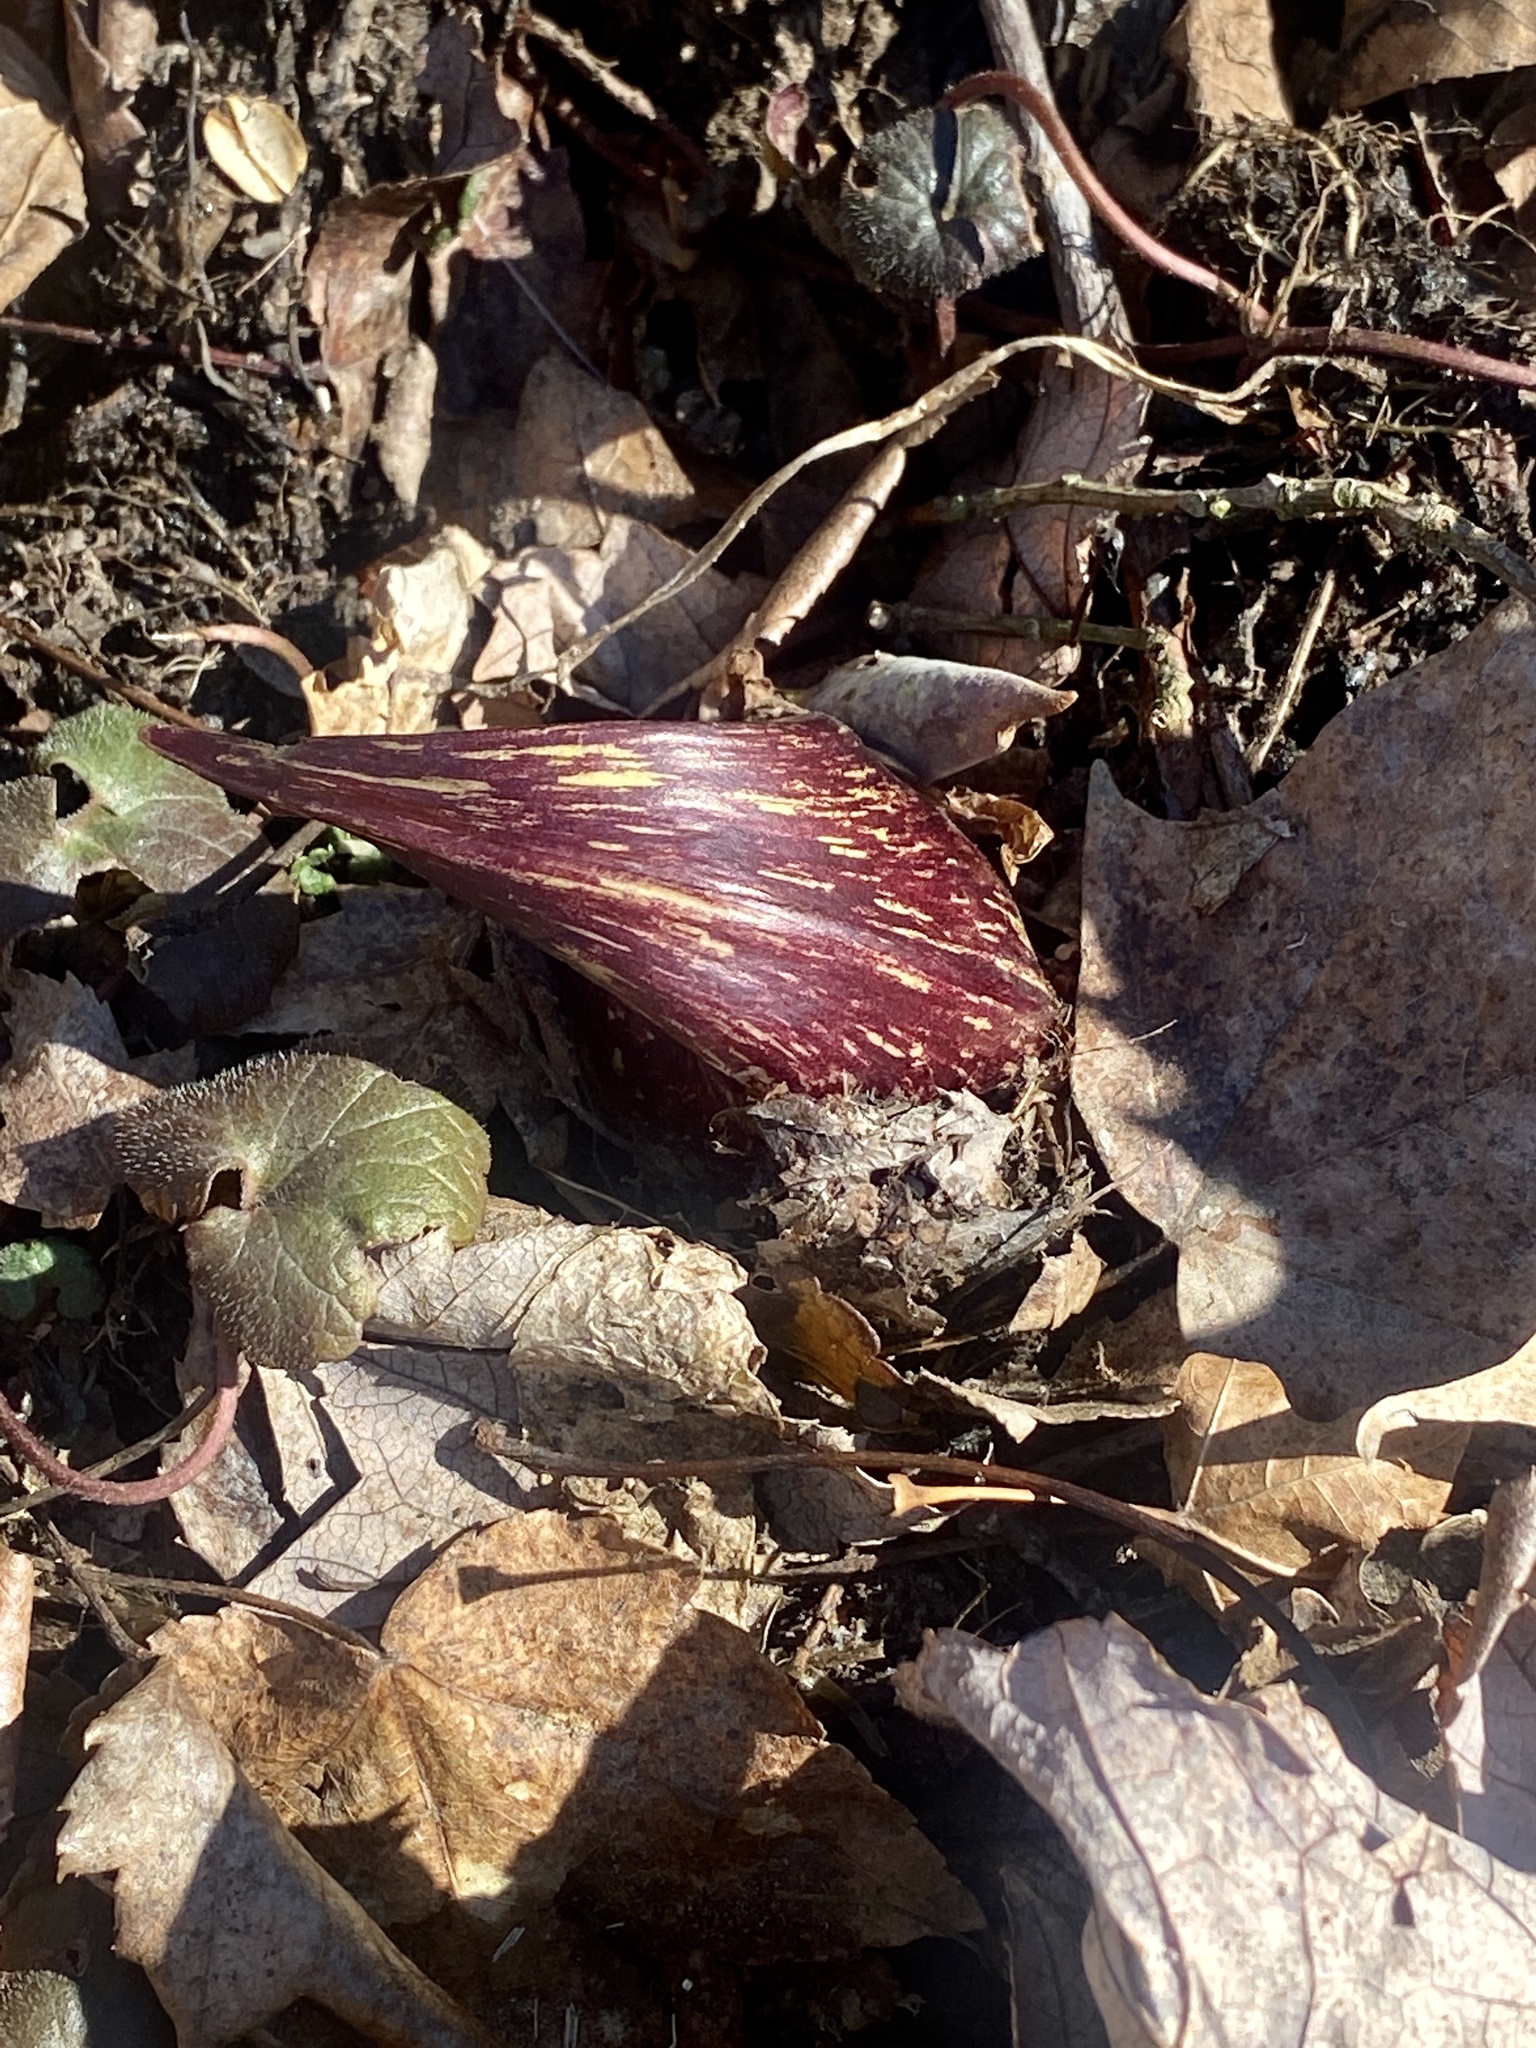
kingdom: Plantae
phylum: Tracheophyta
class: Liliopsida
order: Alismatales
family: Araceae
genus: Symplocarpus
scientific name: Symplocarpus foetidus
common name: Eastern skunk cabbage
